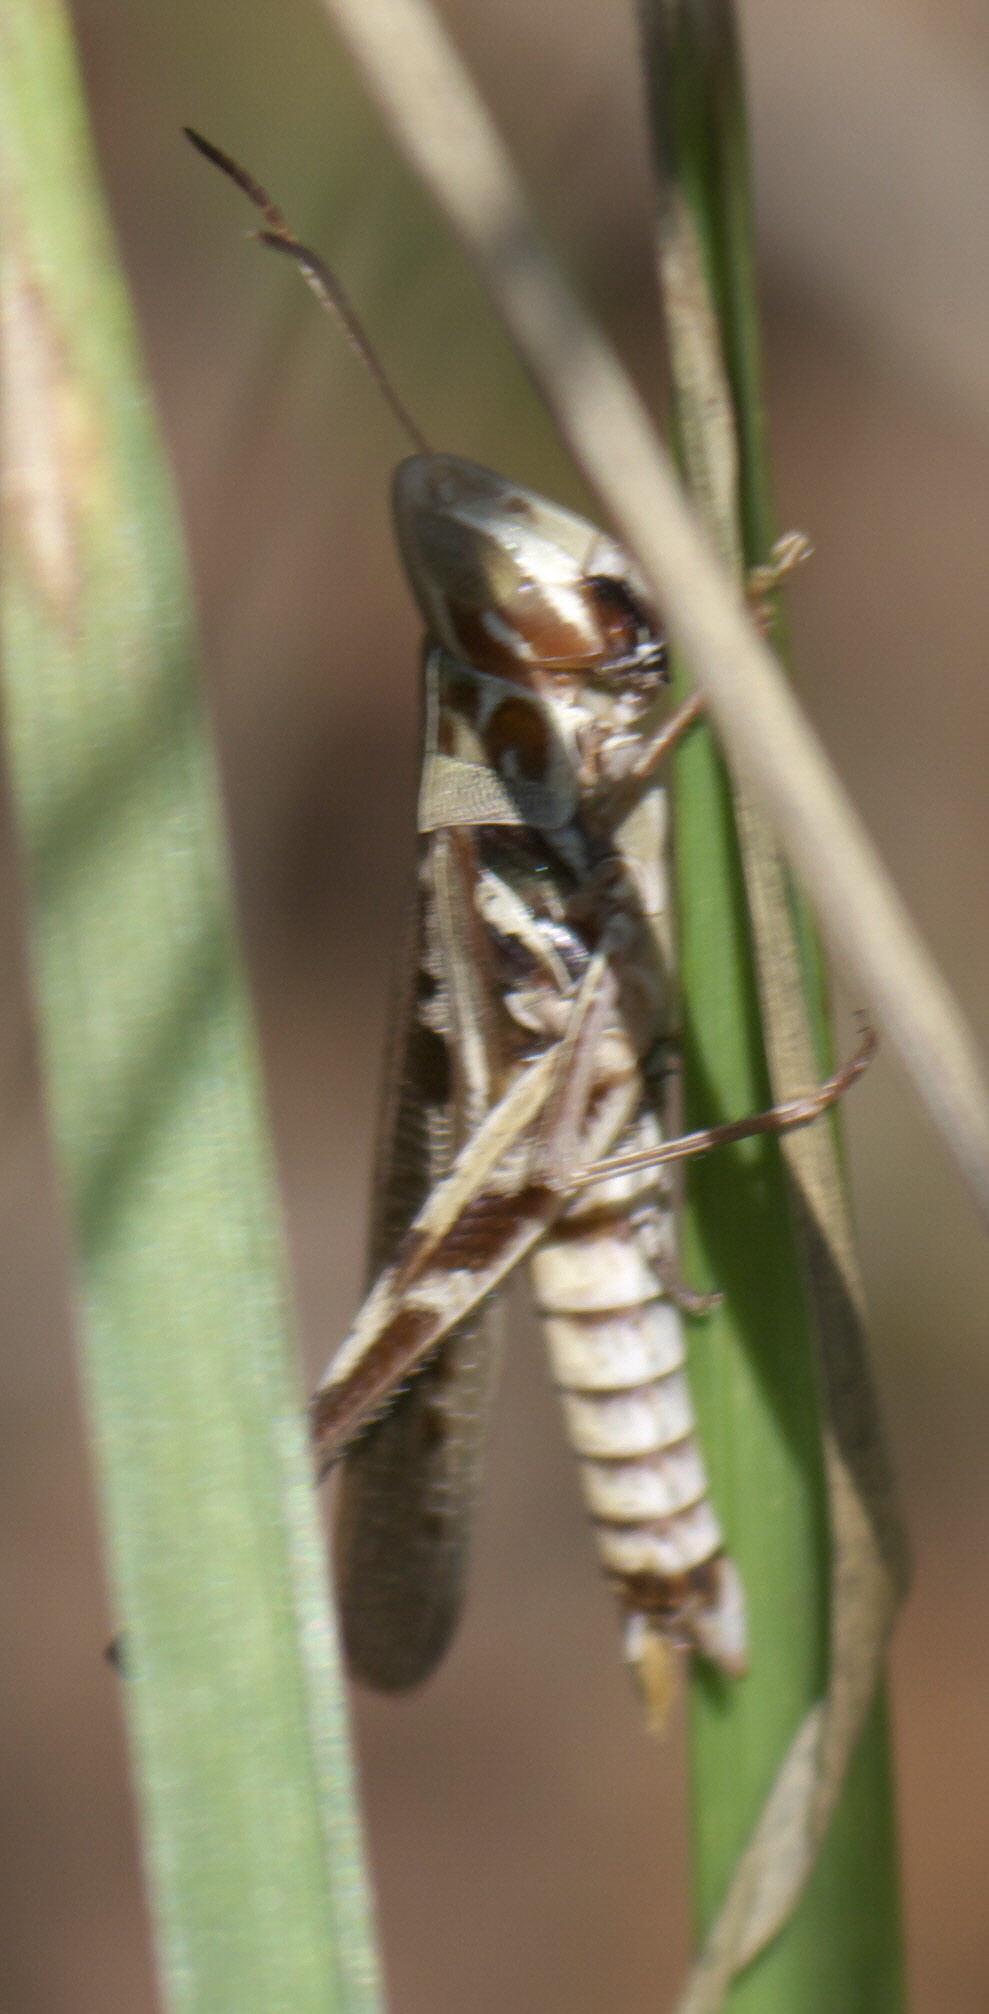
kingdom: Animalia
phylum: Arthropoda
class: Insecta
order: Orthoptera
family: Acrididae
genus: Syrbula
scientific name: Syrbula admirabilis
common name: Handsome grasshopper
